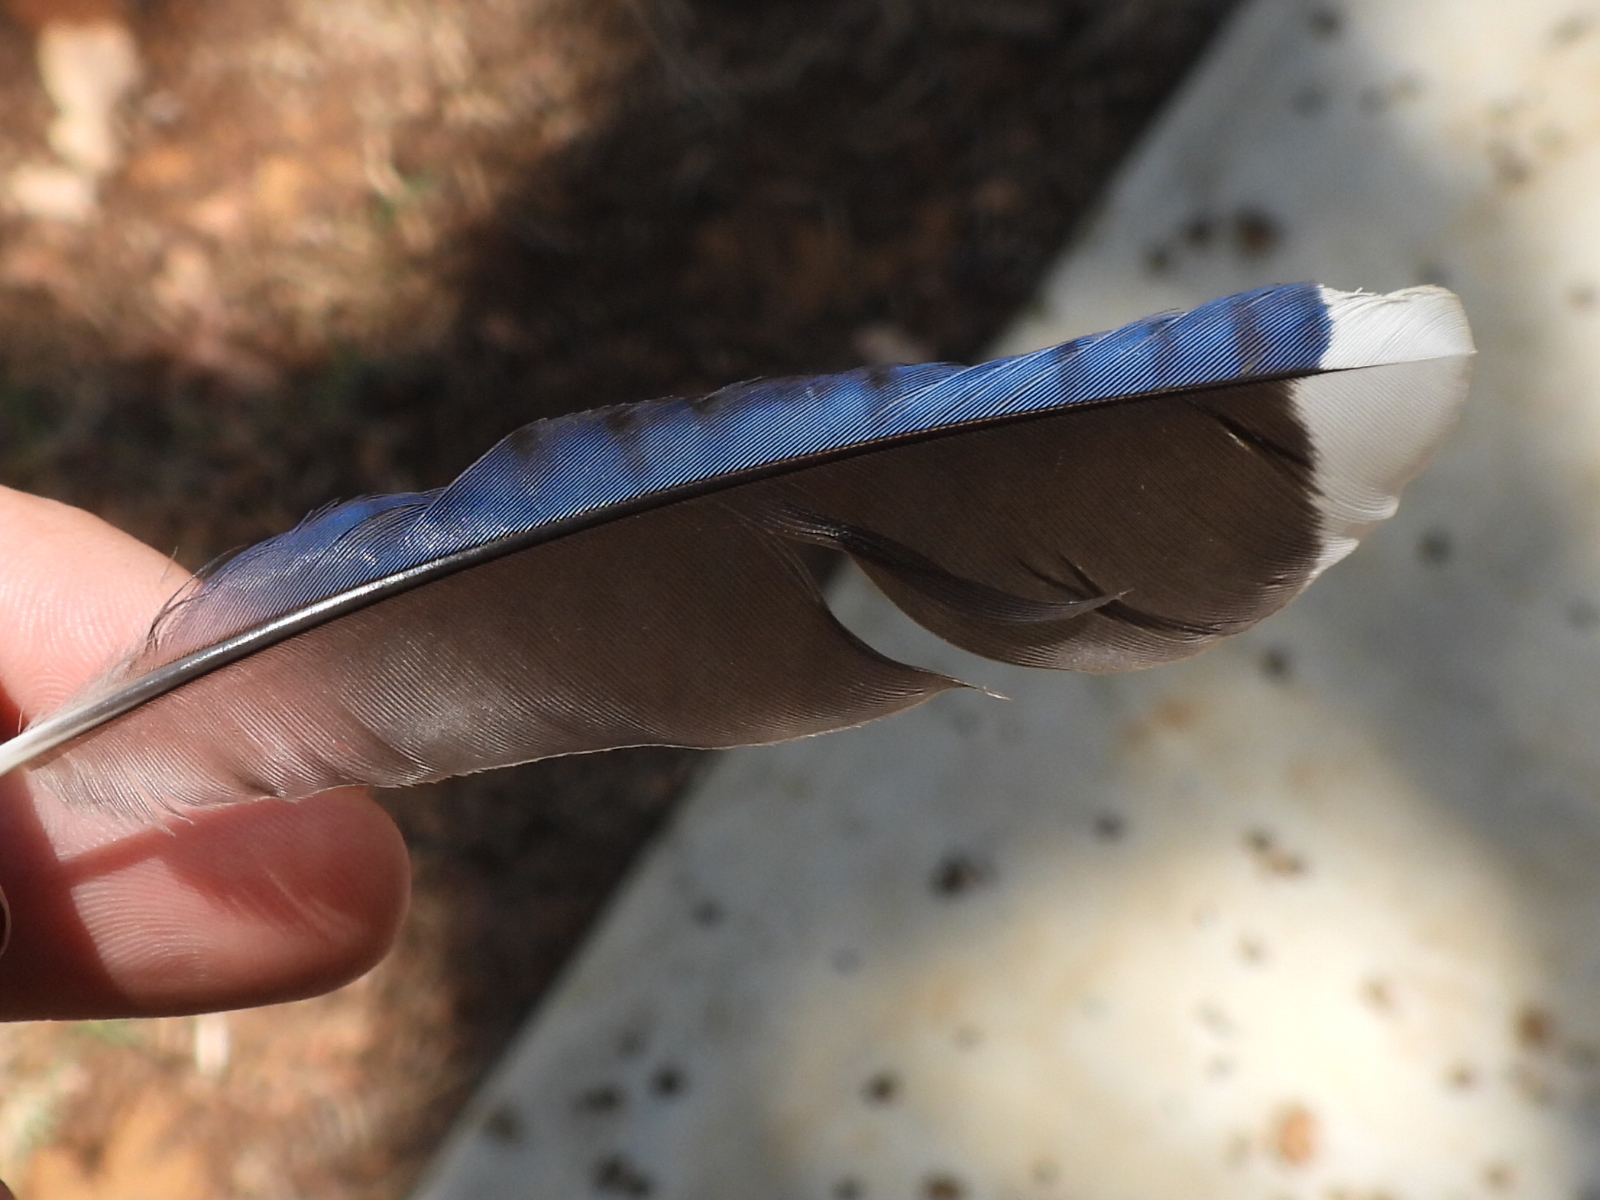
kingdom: Animalia
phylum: Chordata
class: Aves
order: Passeriformes
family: Corvidae
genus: Cyanocitta
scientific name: Cyanocitta cristata
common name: Blue jay
